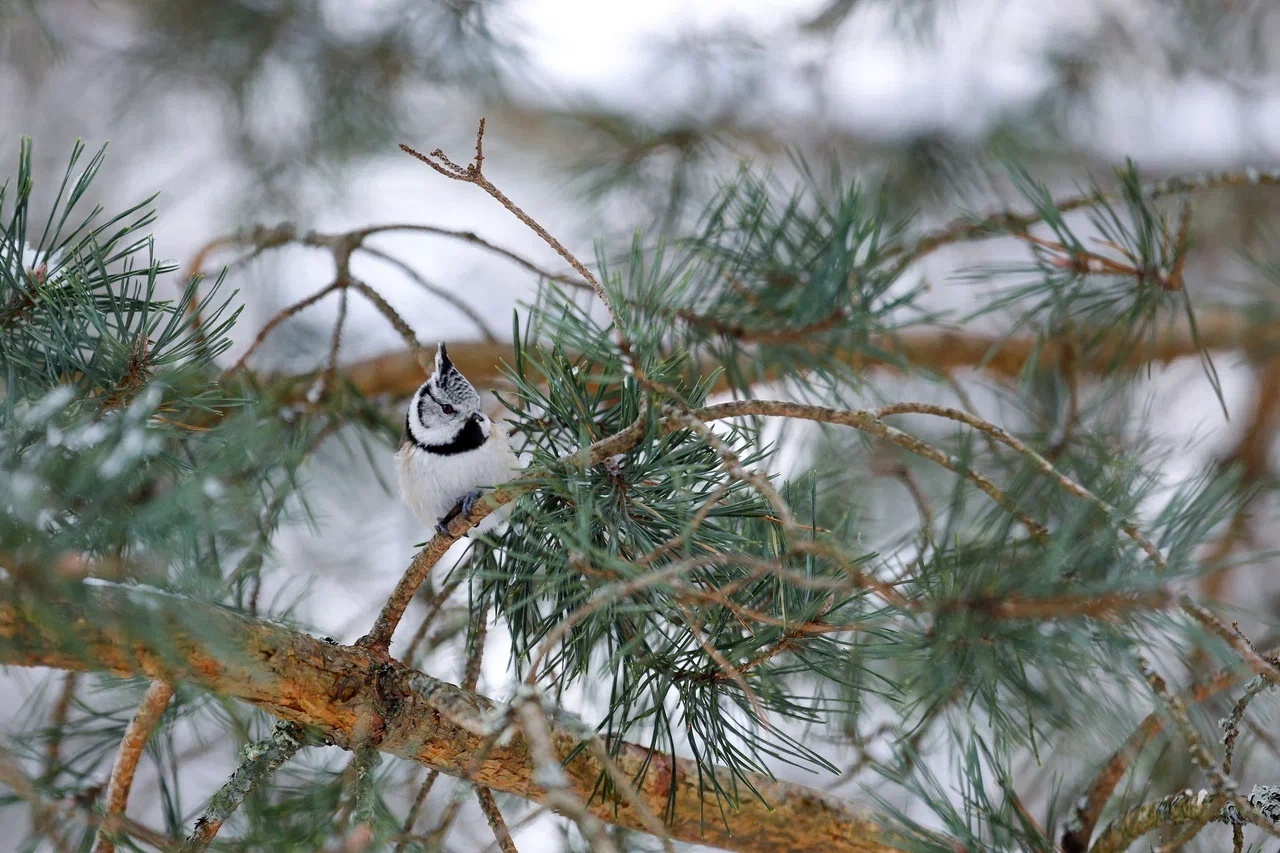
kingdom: Animalia
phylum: Chordata
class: Aves
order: Passeriformes
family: Paridae
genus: Lophophanes
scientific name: Lophophanes cristatus
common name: European crested tit
